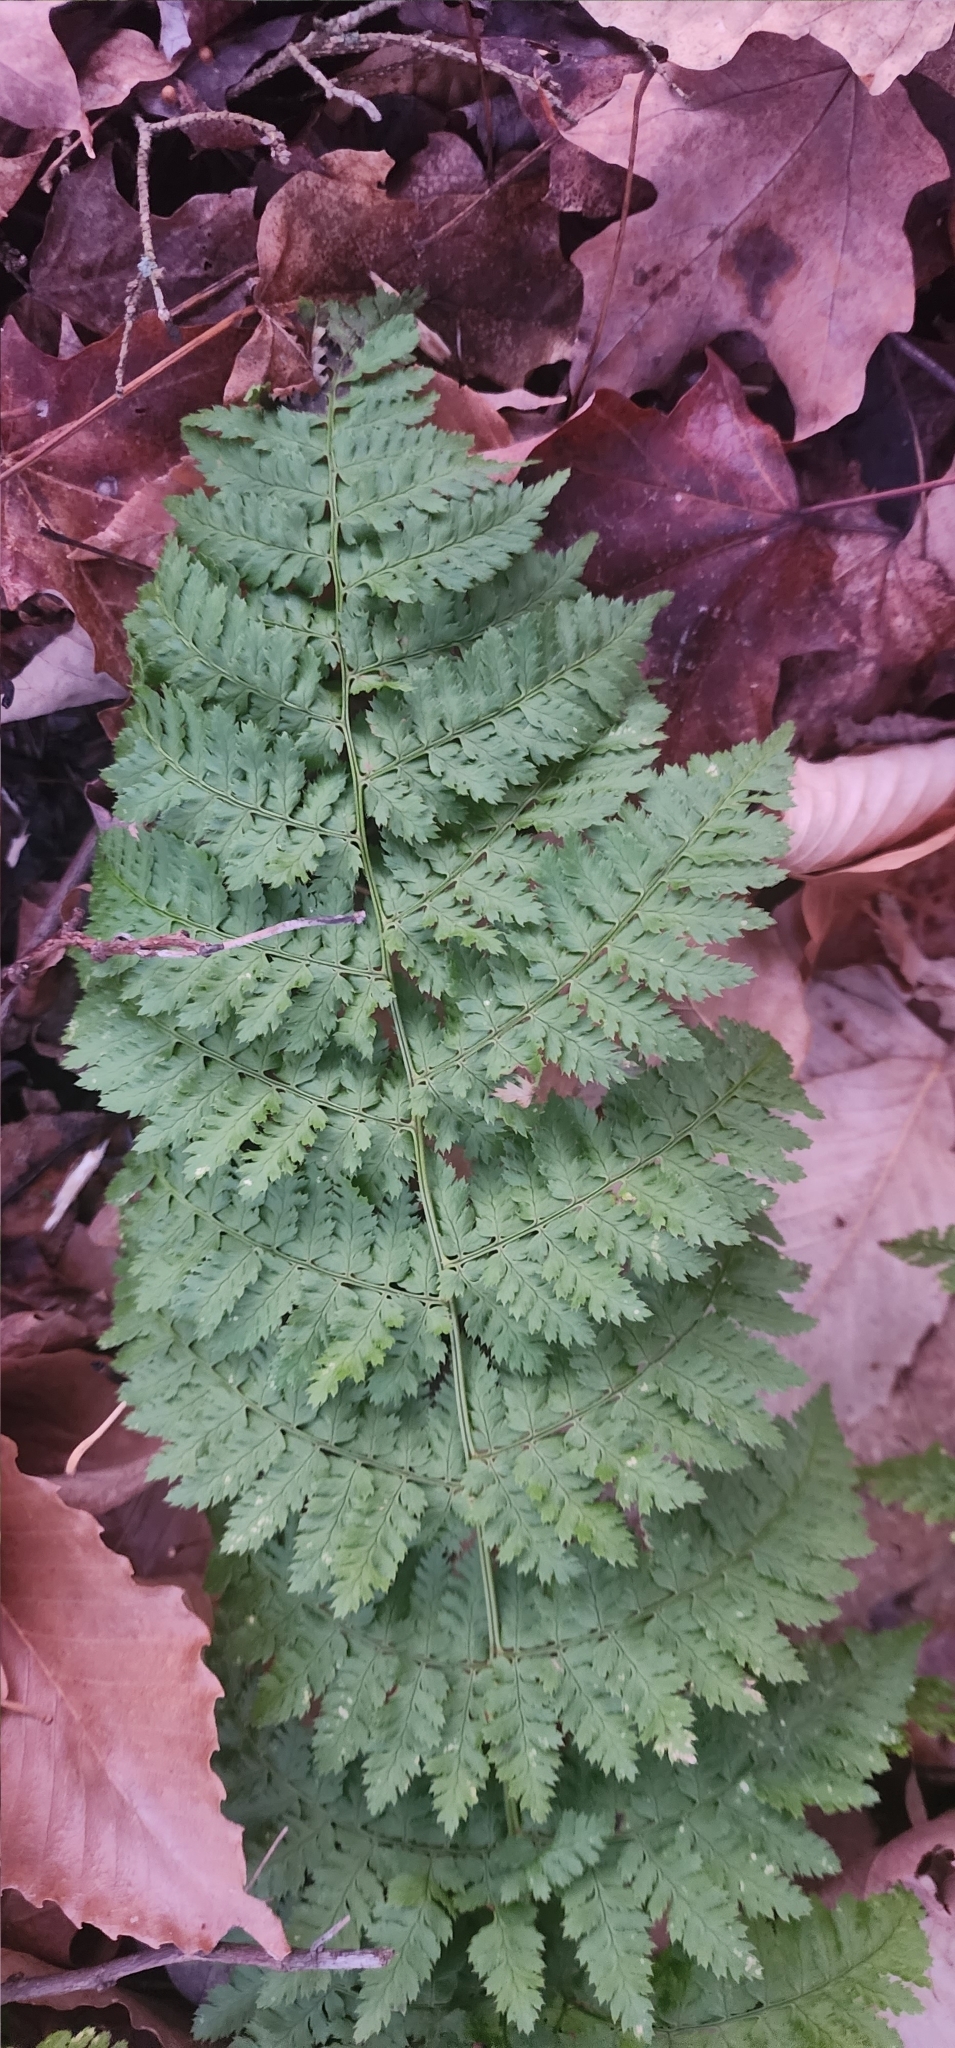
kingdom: Plantae
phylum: Tracheophyta
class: Polypodiopsida
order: Polypodiales
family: Dryopteridaceae
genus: Dryopteris
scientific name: Dryopteris intermedia
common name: Evergreen wood fern
